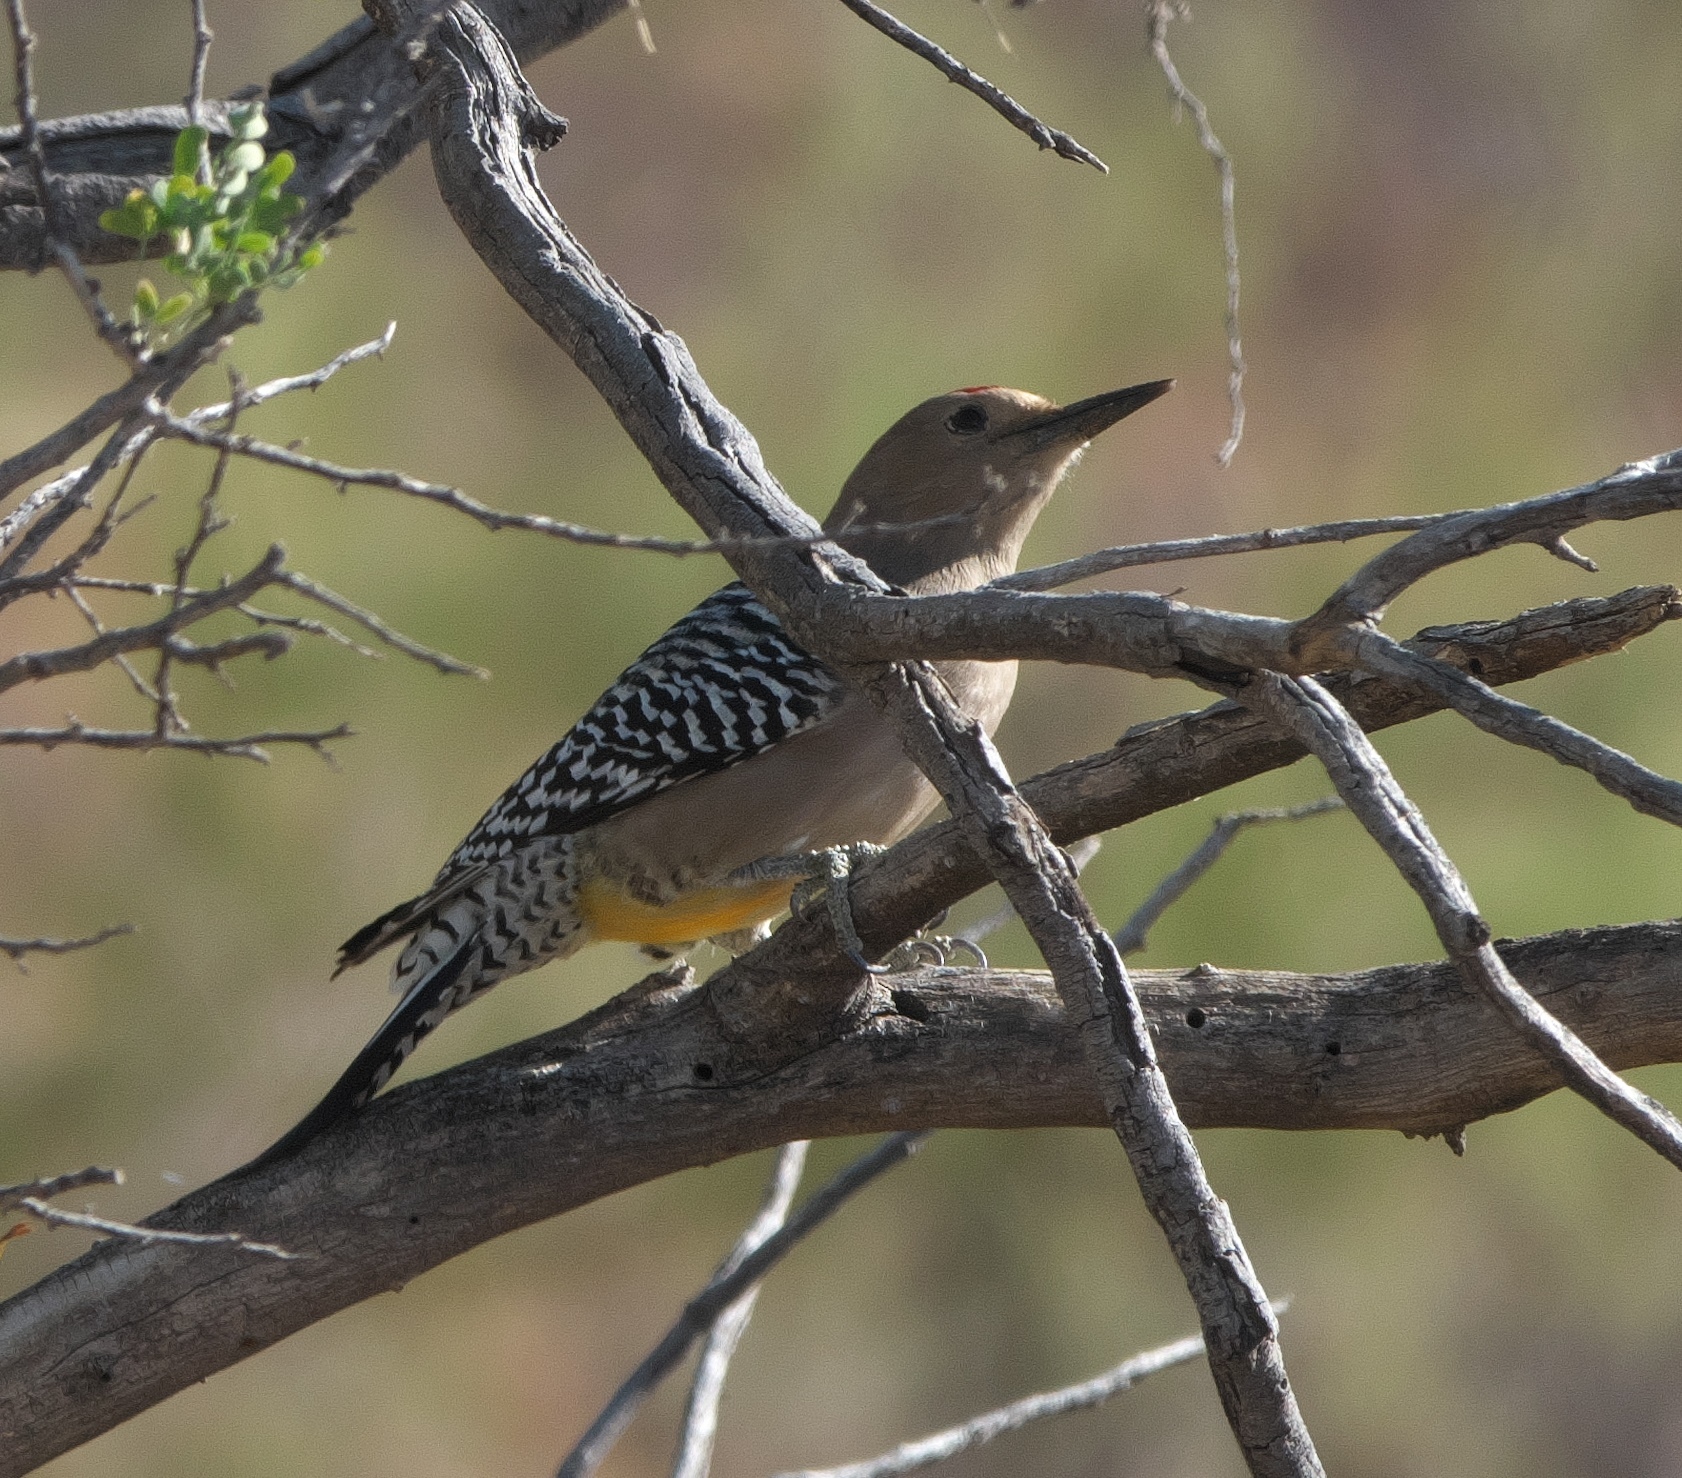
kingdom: Animalia
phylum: Chordata
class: Aves
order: Piciformes
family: Picidae
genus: Melanerpes
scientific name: Melanerpes uropygialis
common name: Gila woodpecker
